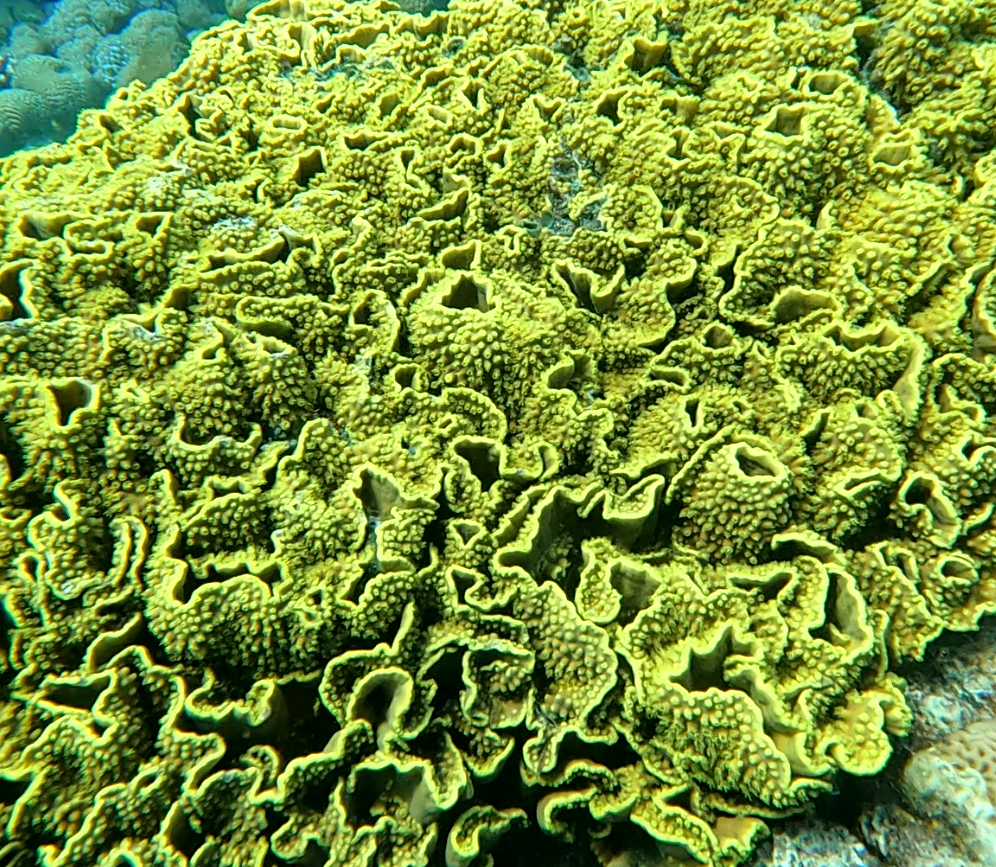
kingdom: Animalia
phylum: Cnidaria
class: Anthozoa
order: Scleractinia
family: Dendrophylliidae
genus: Turbinaria
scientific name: Turbinaria reniformis
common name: Disc coral
